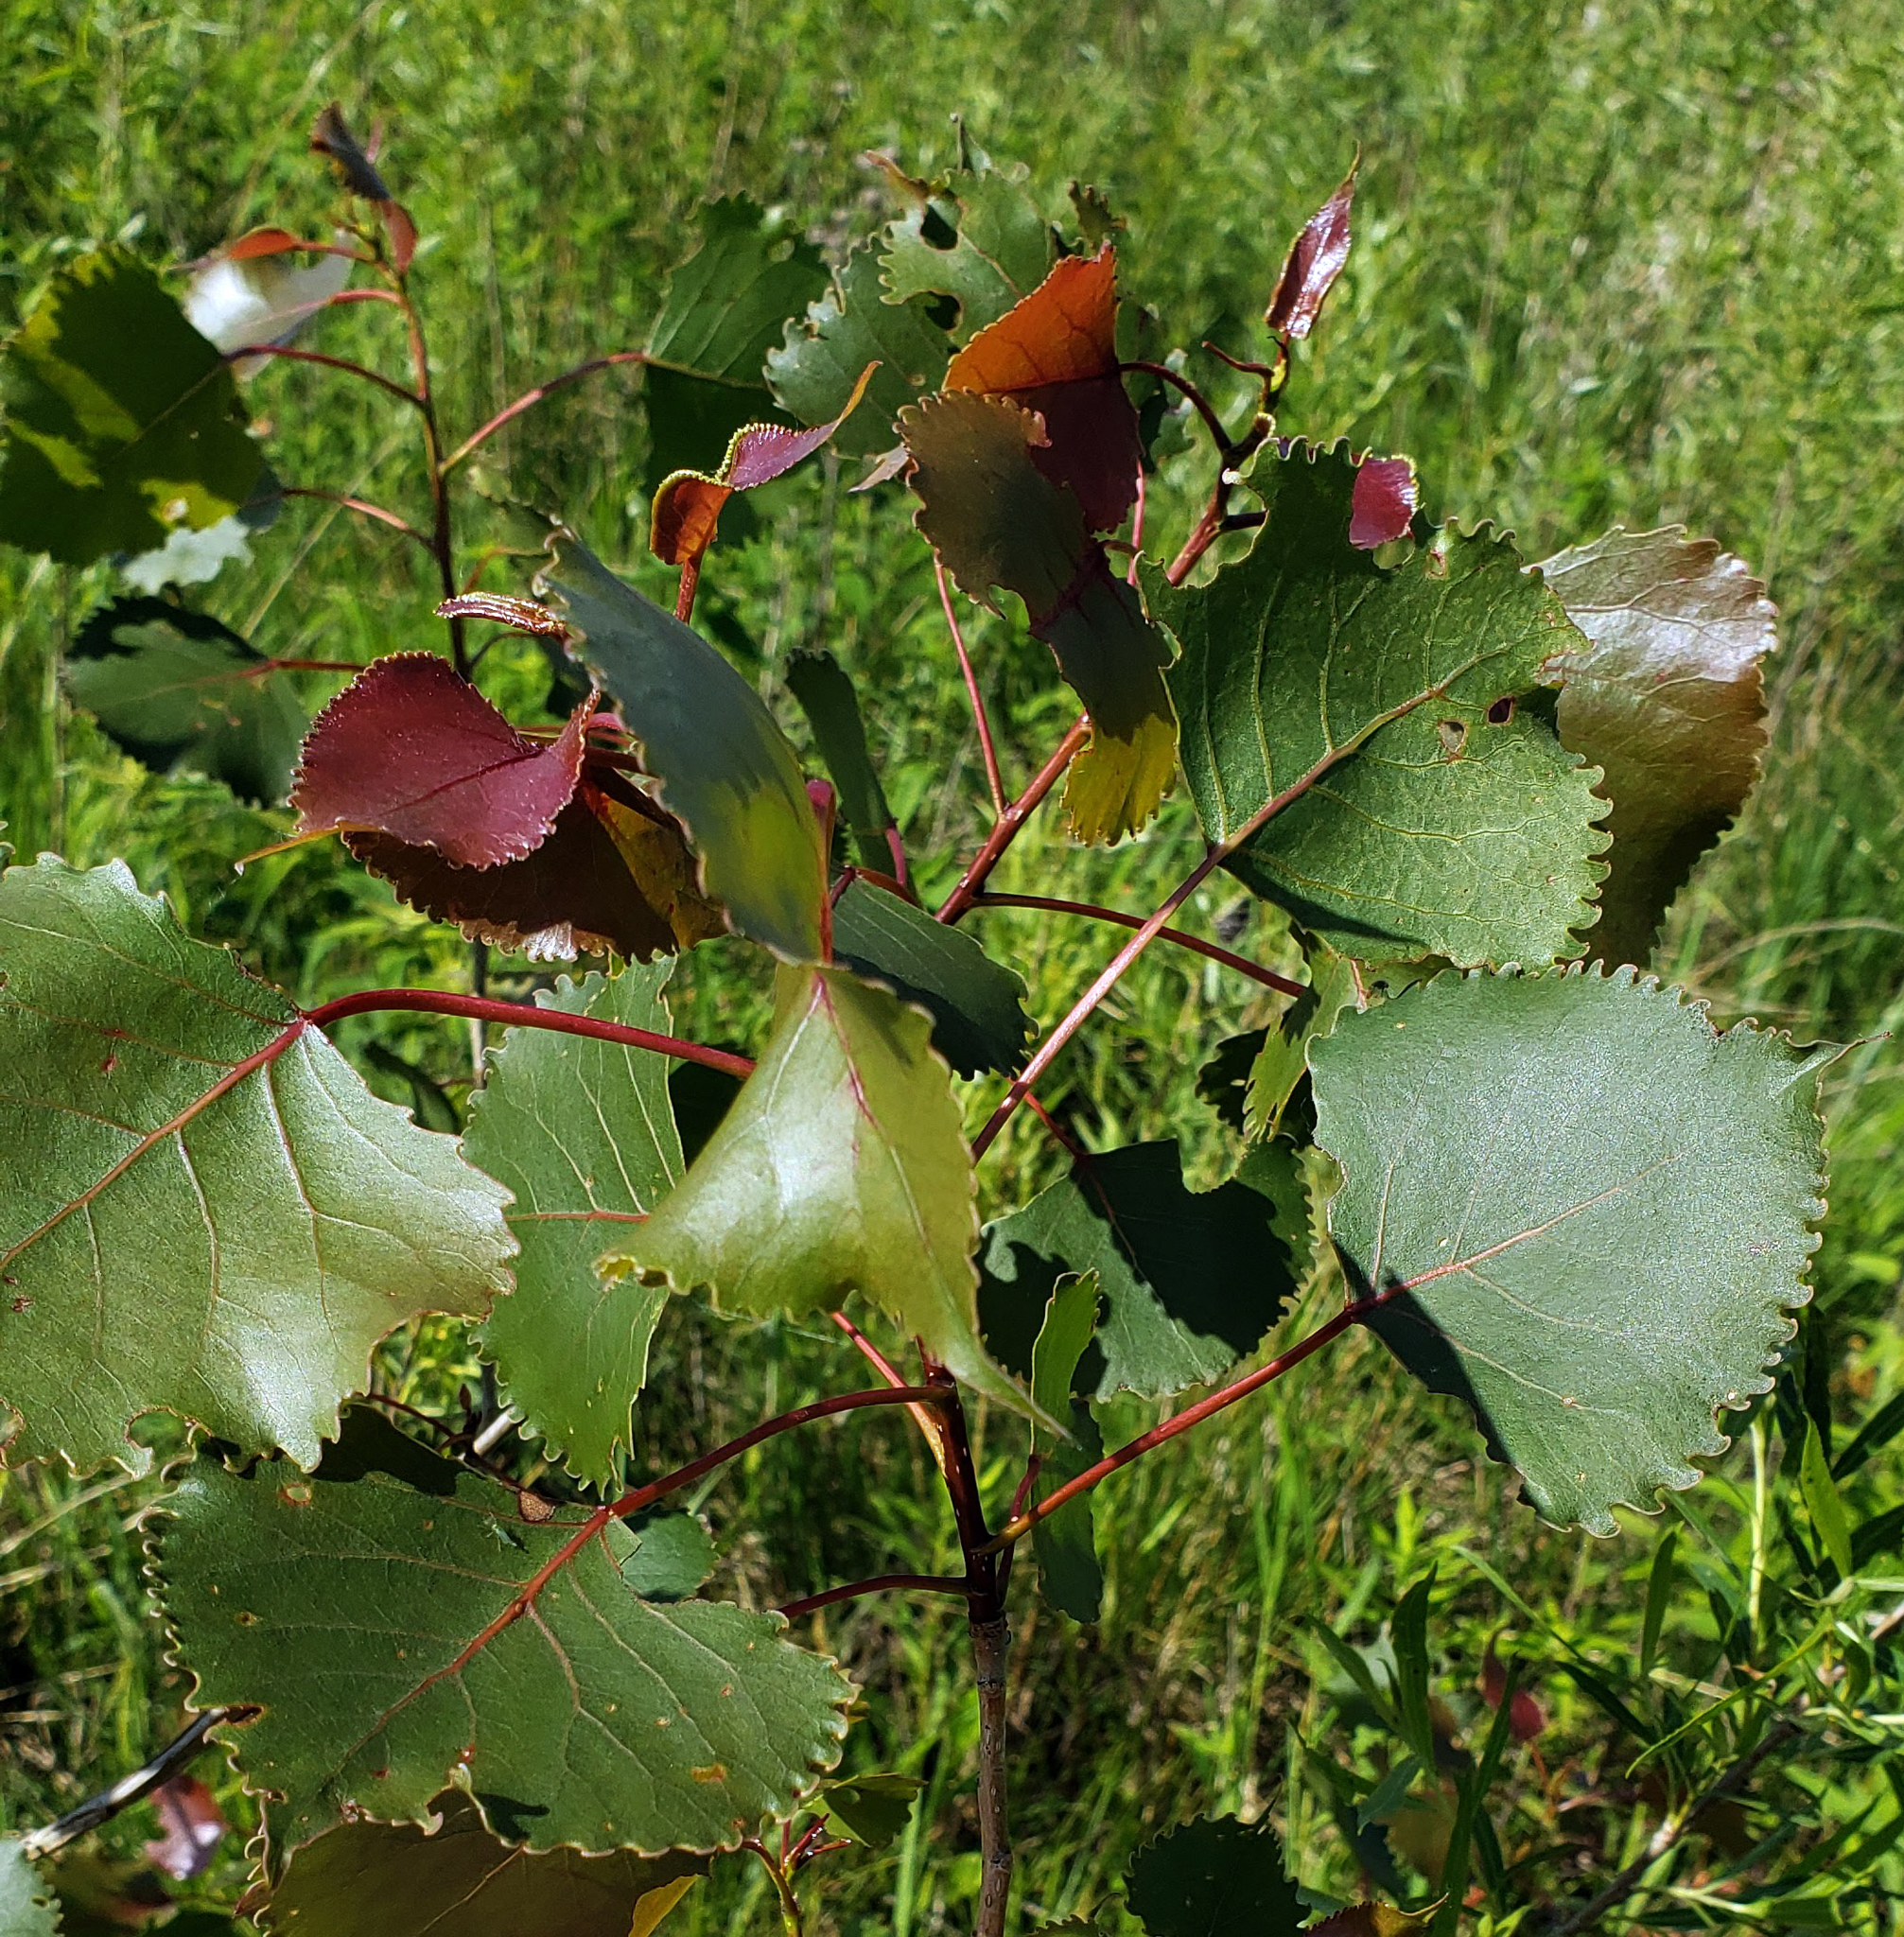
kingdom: Plantae
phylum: Tracheophyta
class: Magnoliopsida
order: Malpighiales
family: Salicaceae
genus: Populus
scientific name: Populus deltoides
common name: Eastern cottonwood
